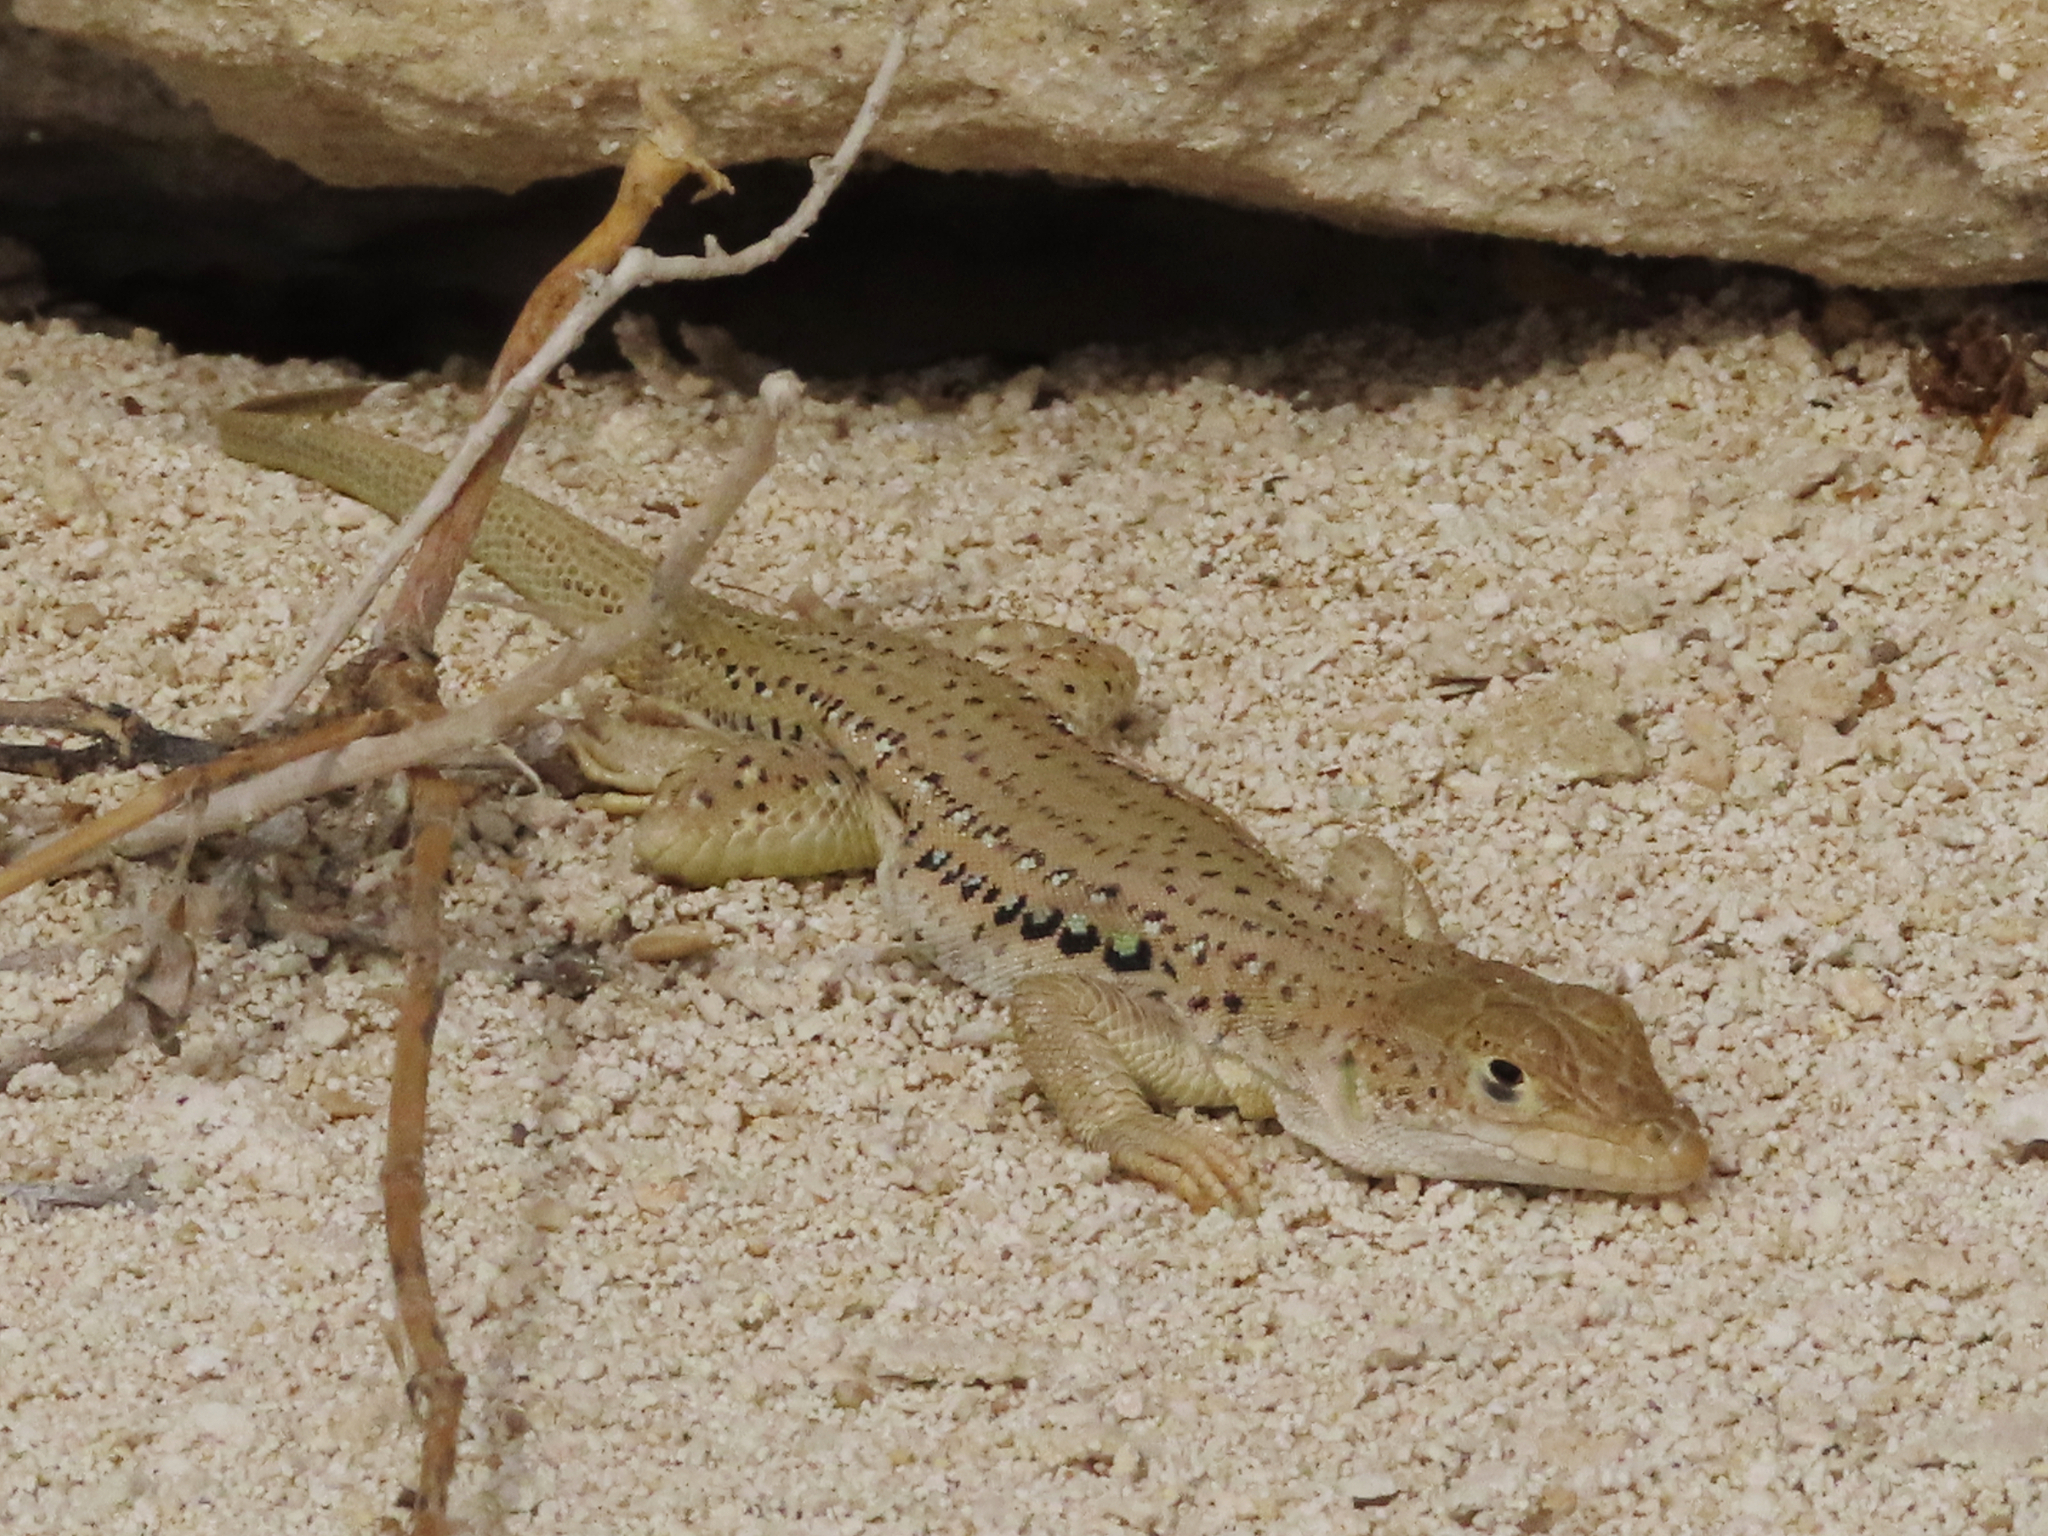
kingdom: Animalia
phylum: Chordata
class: Squamata
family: Lacertidae
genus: Eremias
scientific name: Eremias velox
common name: Central asian racerunner
